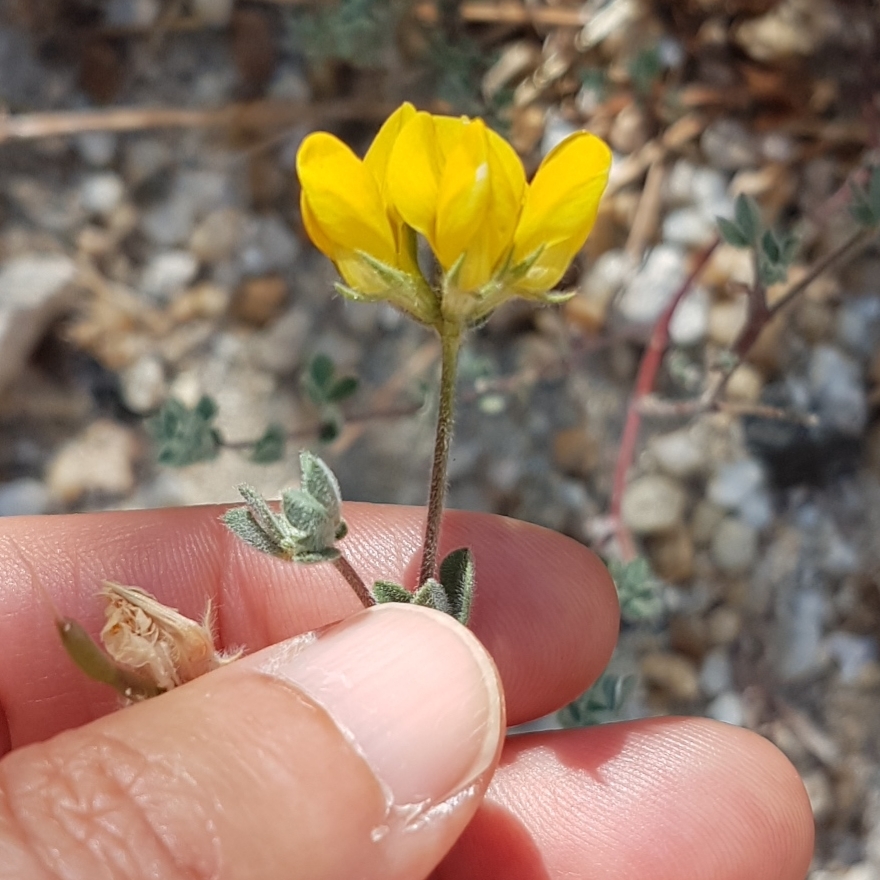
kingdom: Plantae
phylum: Tracheophyta
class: Magnoliopsida
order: Fabales
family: Fabaceae
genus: Medicago
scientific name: Medicago marina
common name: Sea medick
